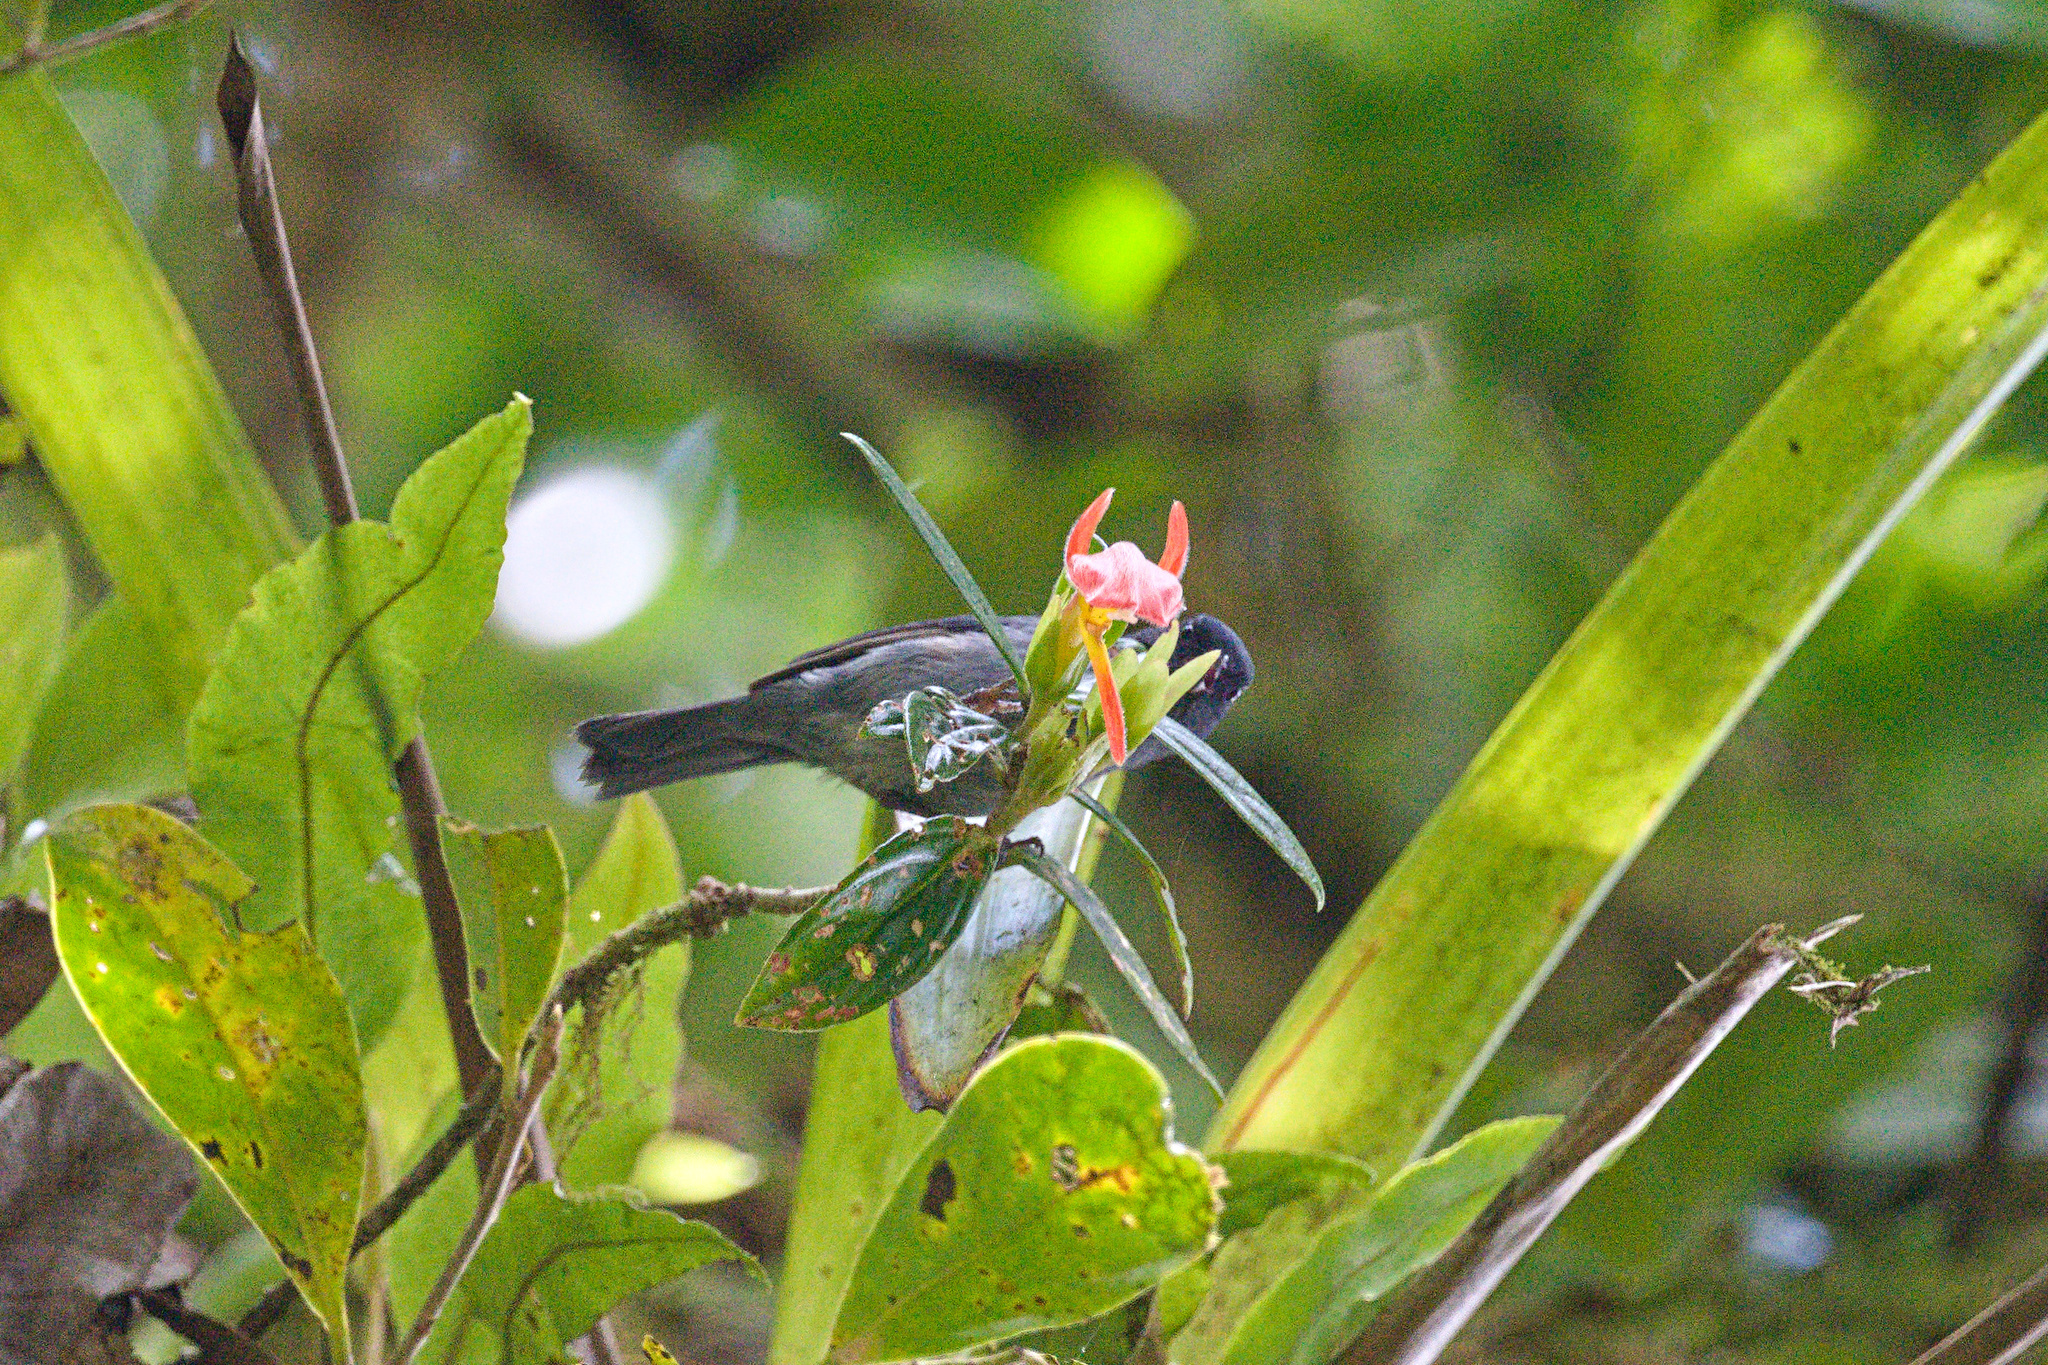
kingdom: Animalia
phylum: Chordata
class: Aves
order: Passeriformes
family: Thraupidae
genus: Diglossa
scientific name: Diglossa plumbea
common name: Slaty flowerpiercer
